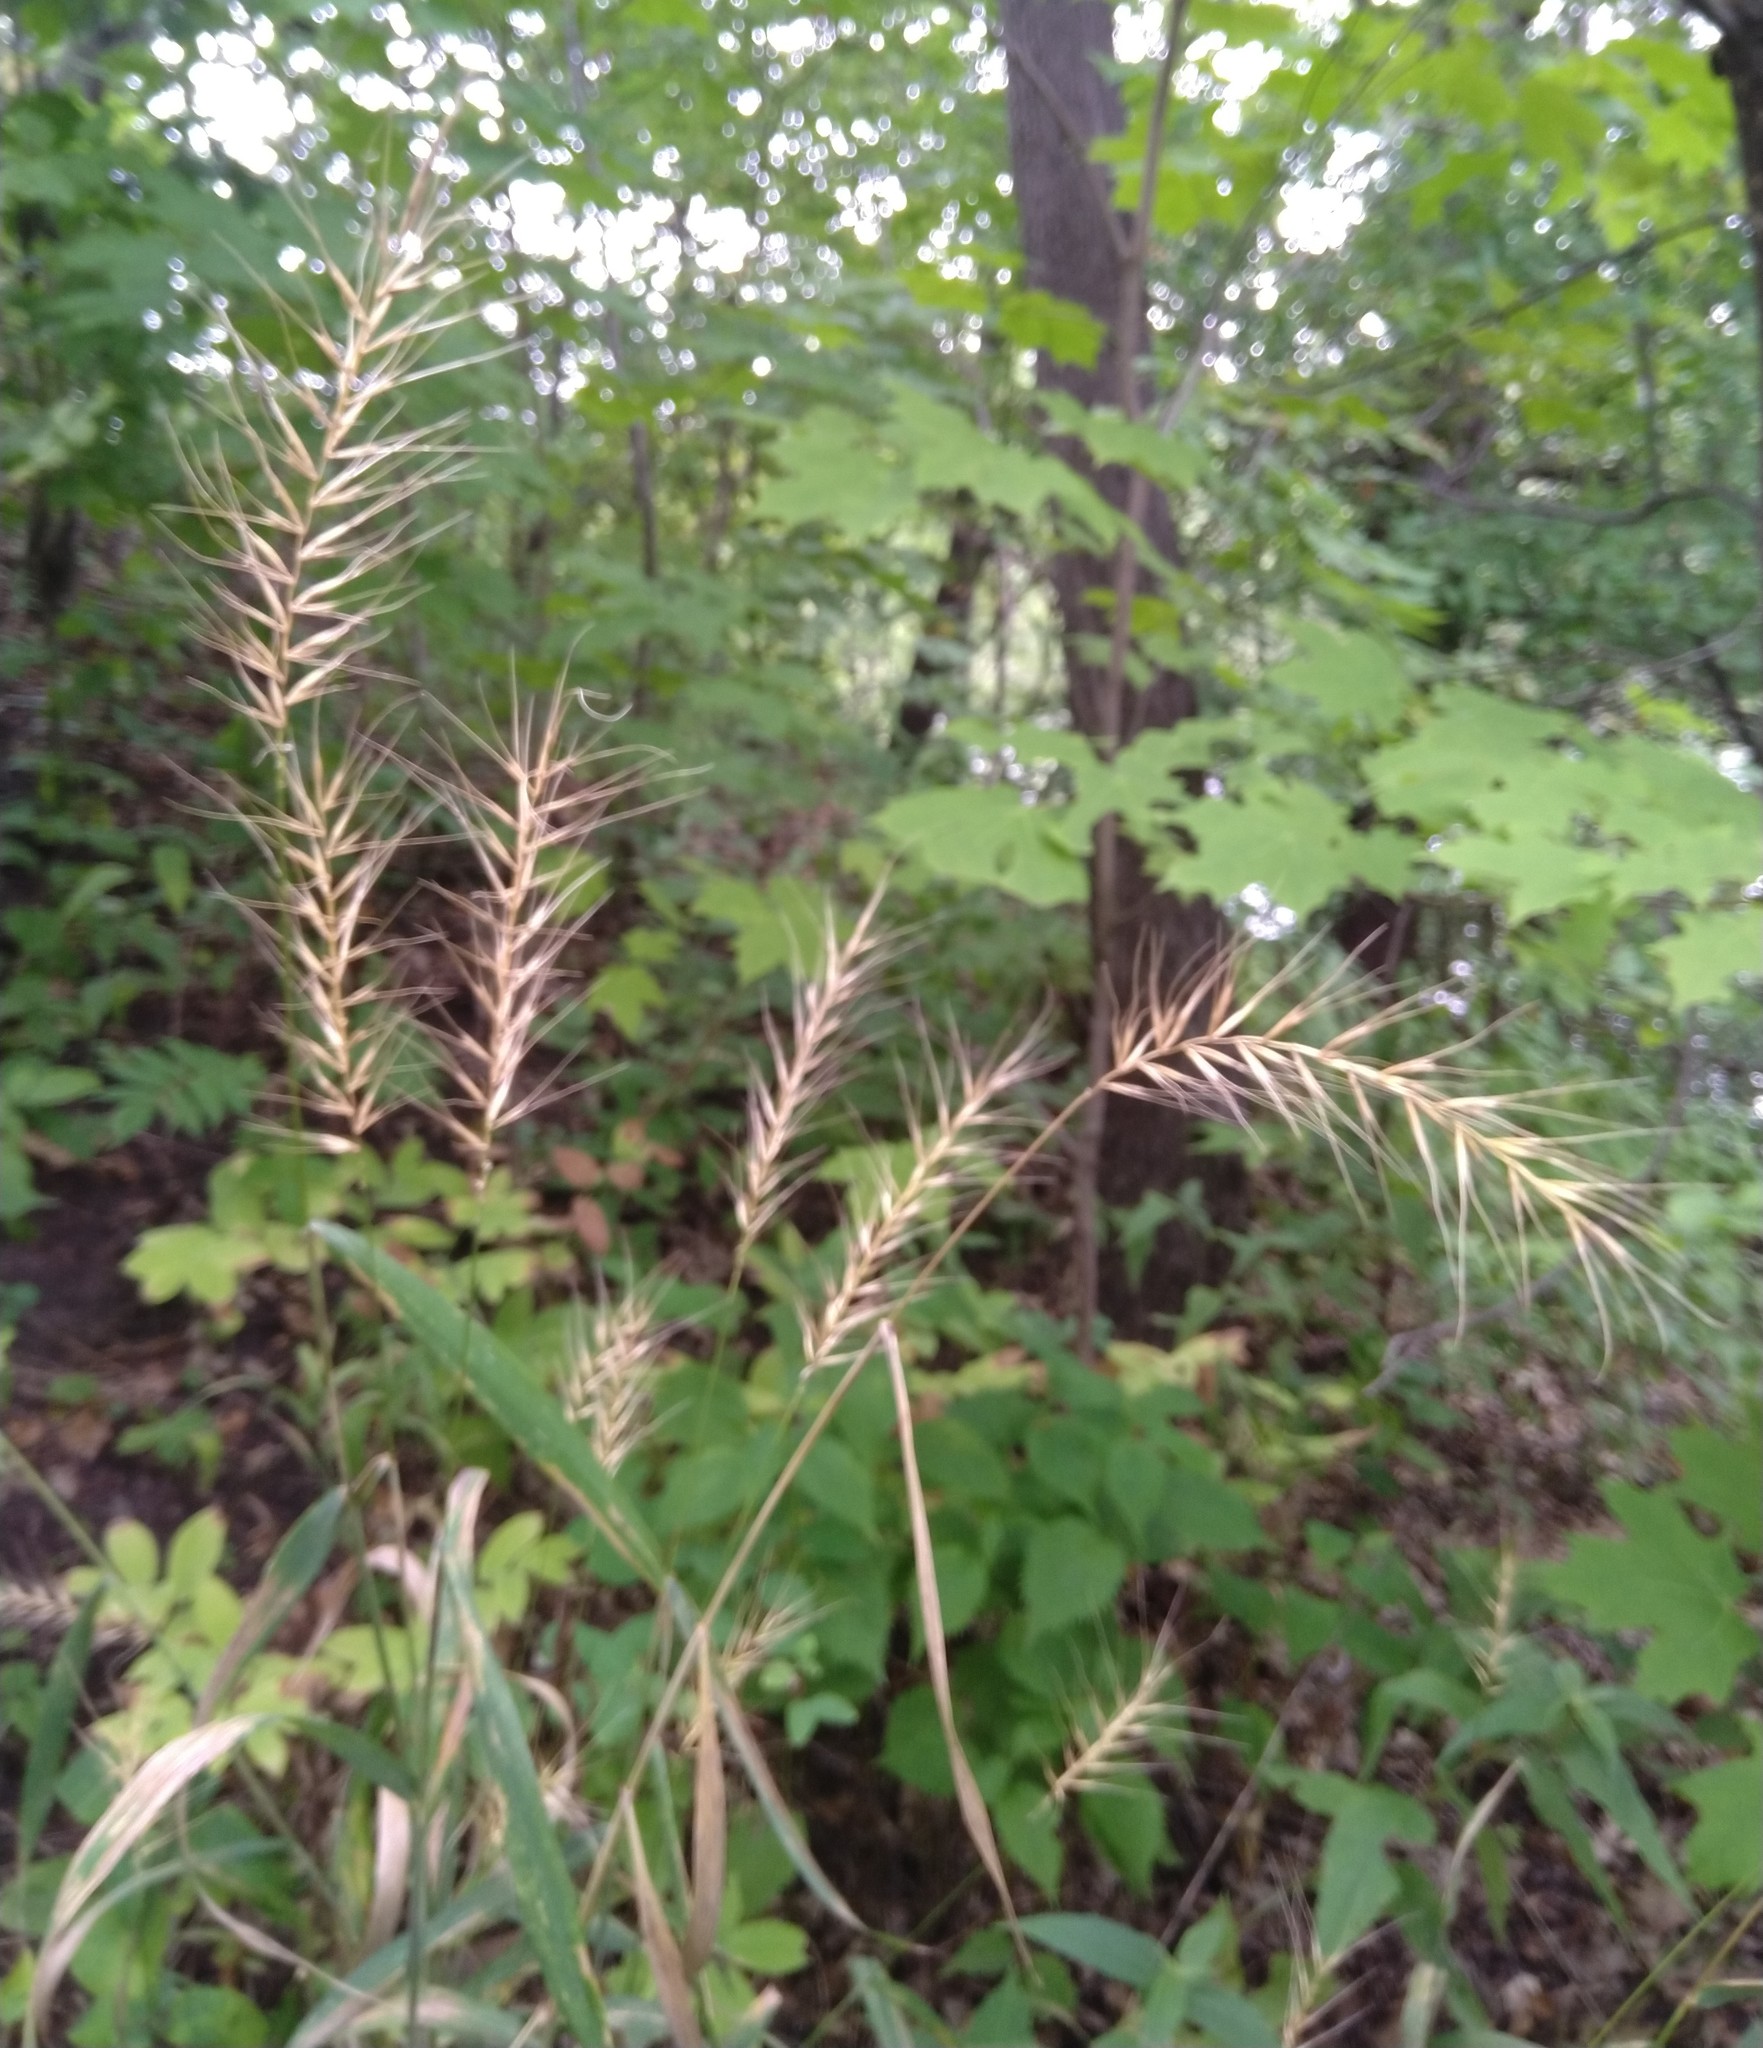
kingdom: Plantae
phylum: Tracheophyta
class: Liliopsida
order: Poales
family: Poaceae
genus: Elymus
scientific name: Elymus hystrix
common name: Bottlebrush grass
